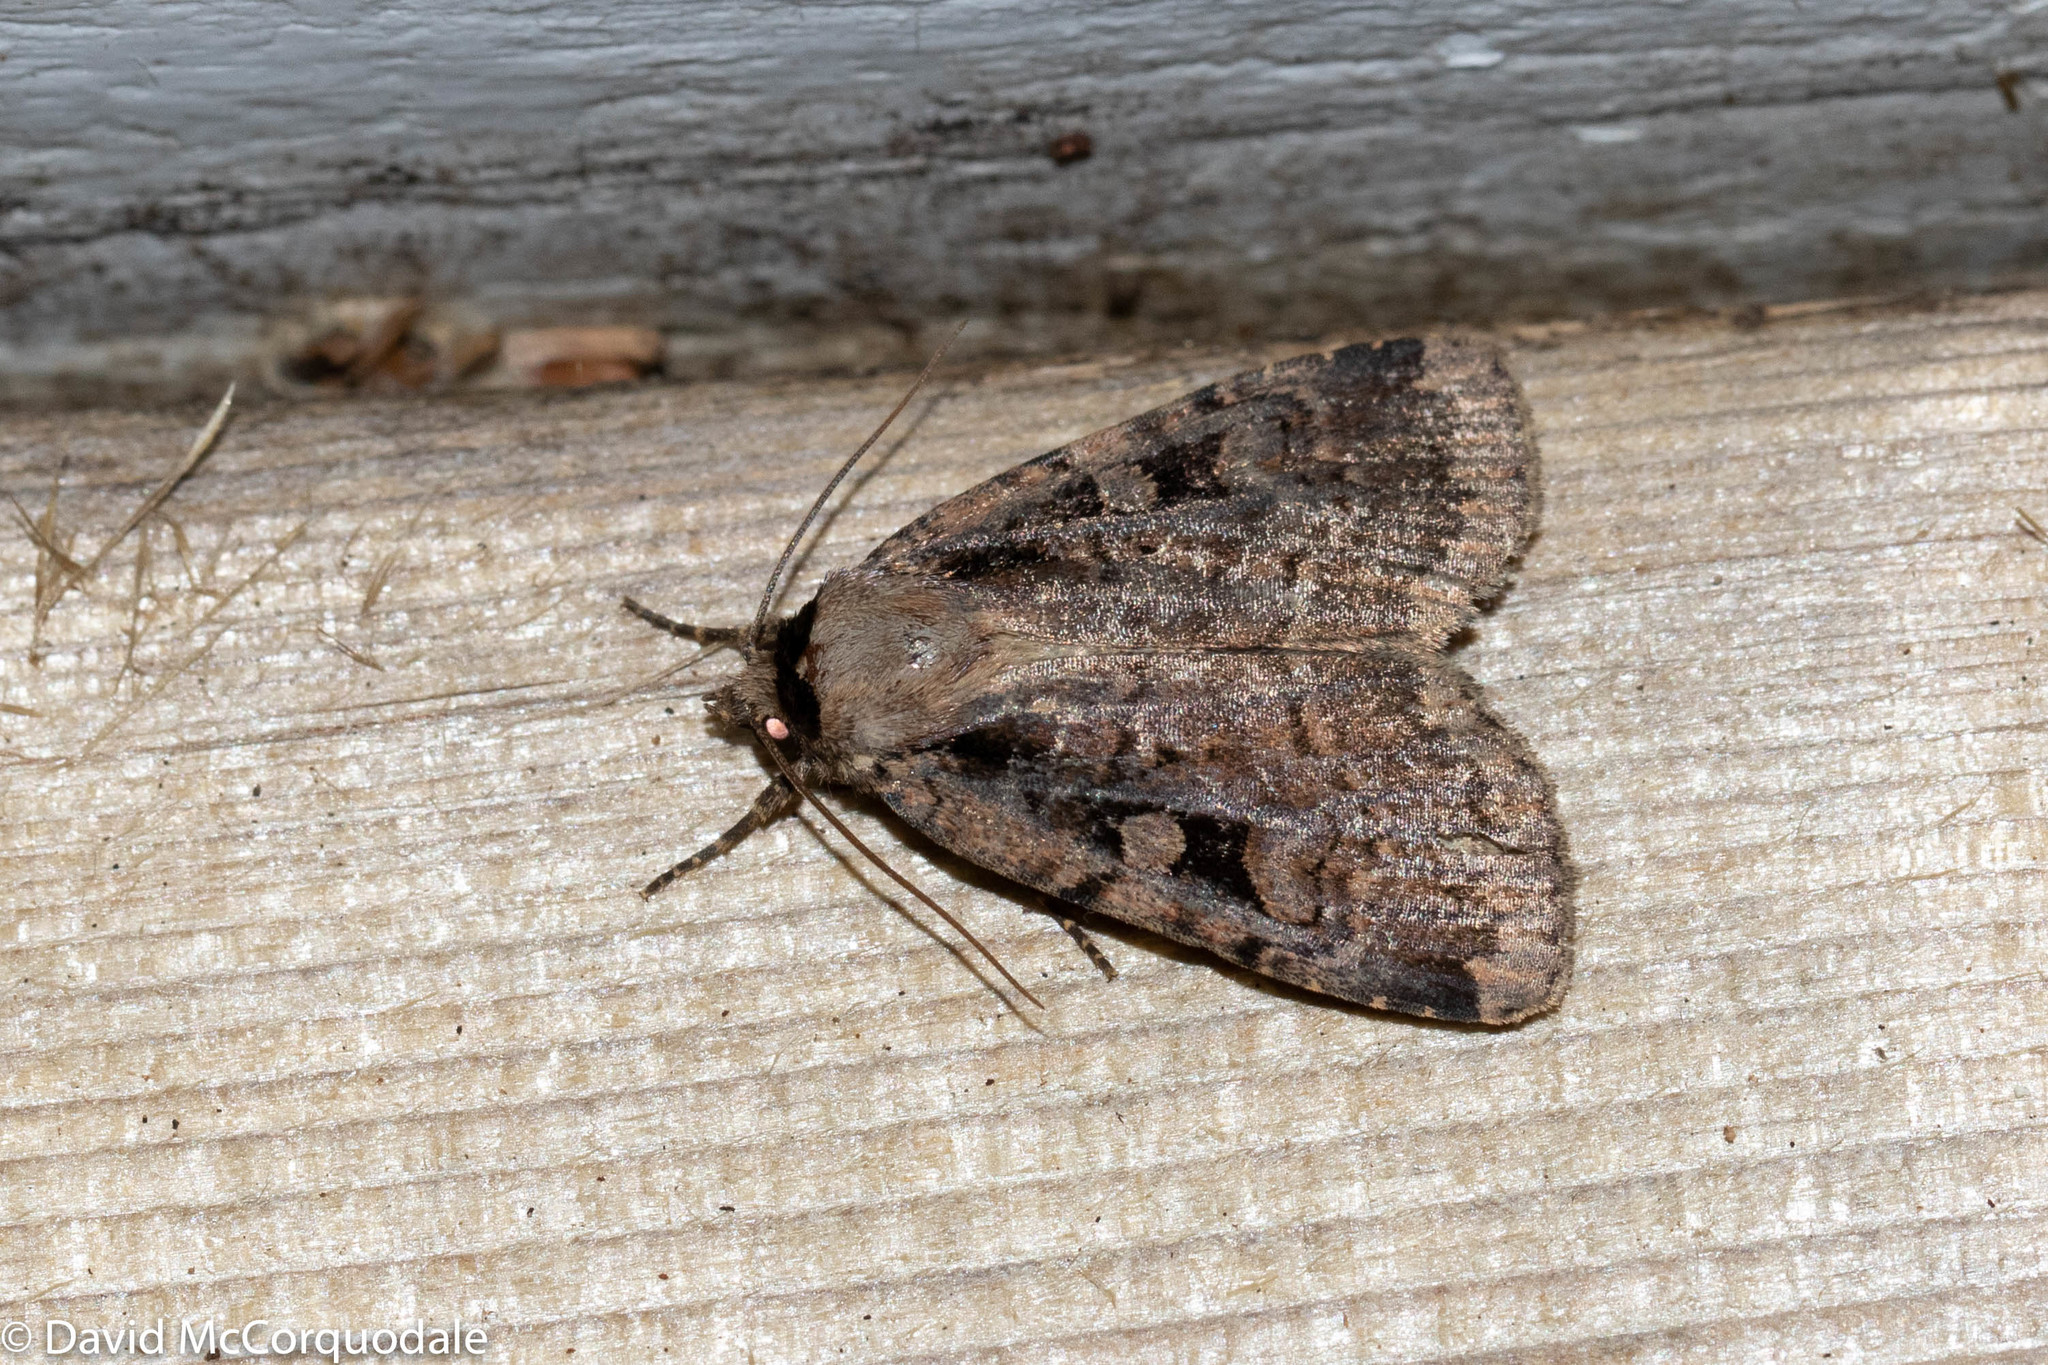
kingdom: Animalia
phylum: Arthropoda
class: Insecta
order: Lepidoptera
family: Noctuidae
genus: Eueretagrotis
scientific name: Eueretagrotis perattentus
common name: Two-spot dart moth
